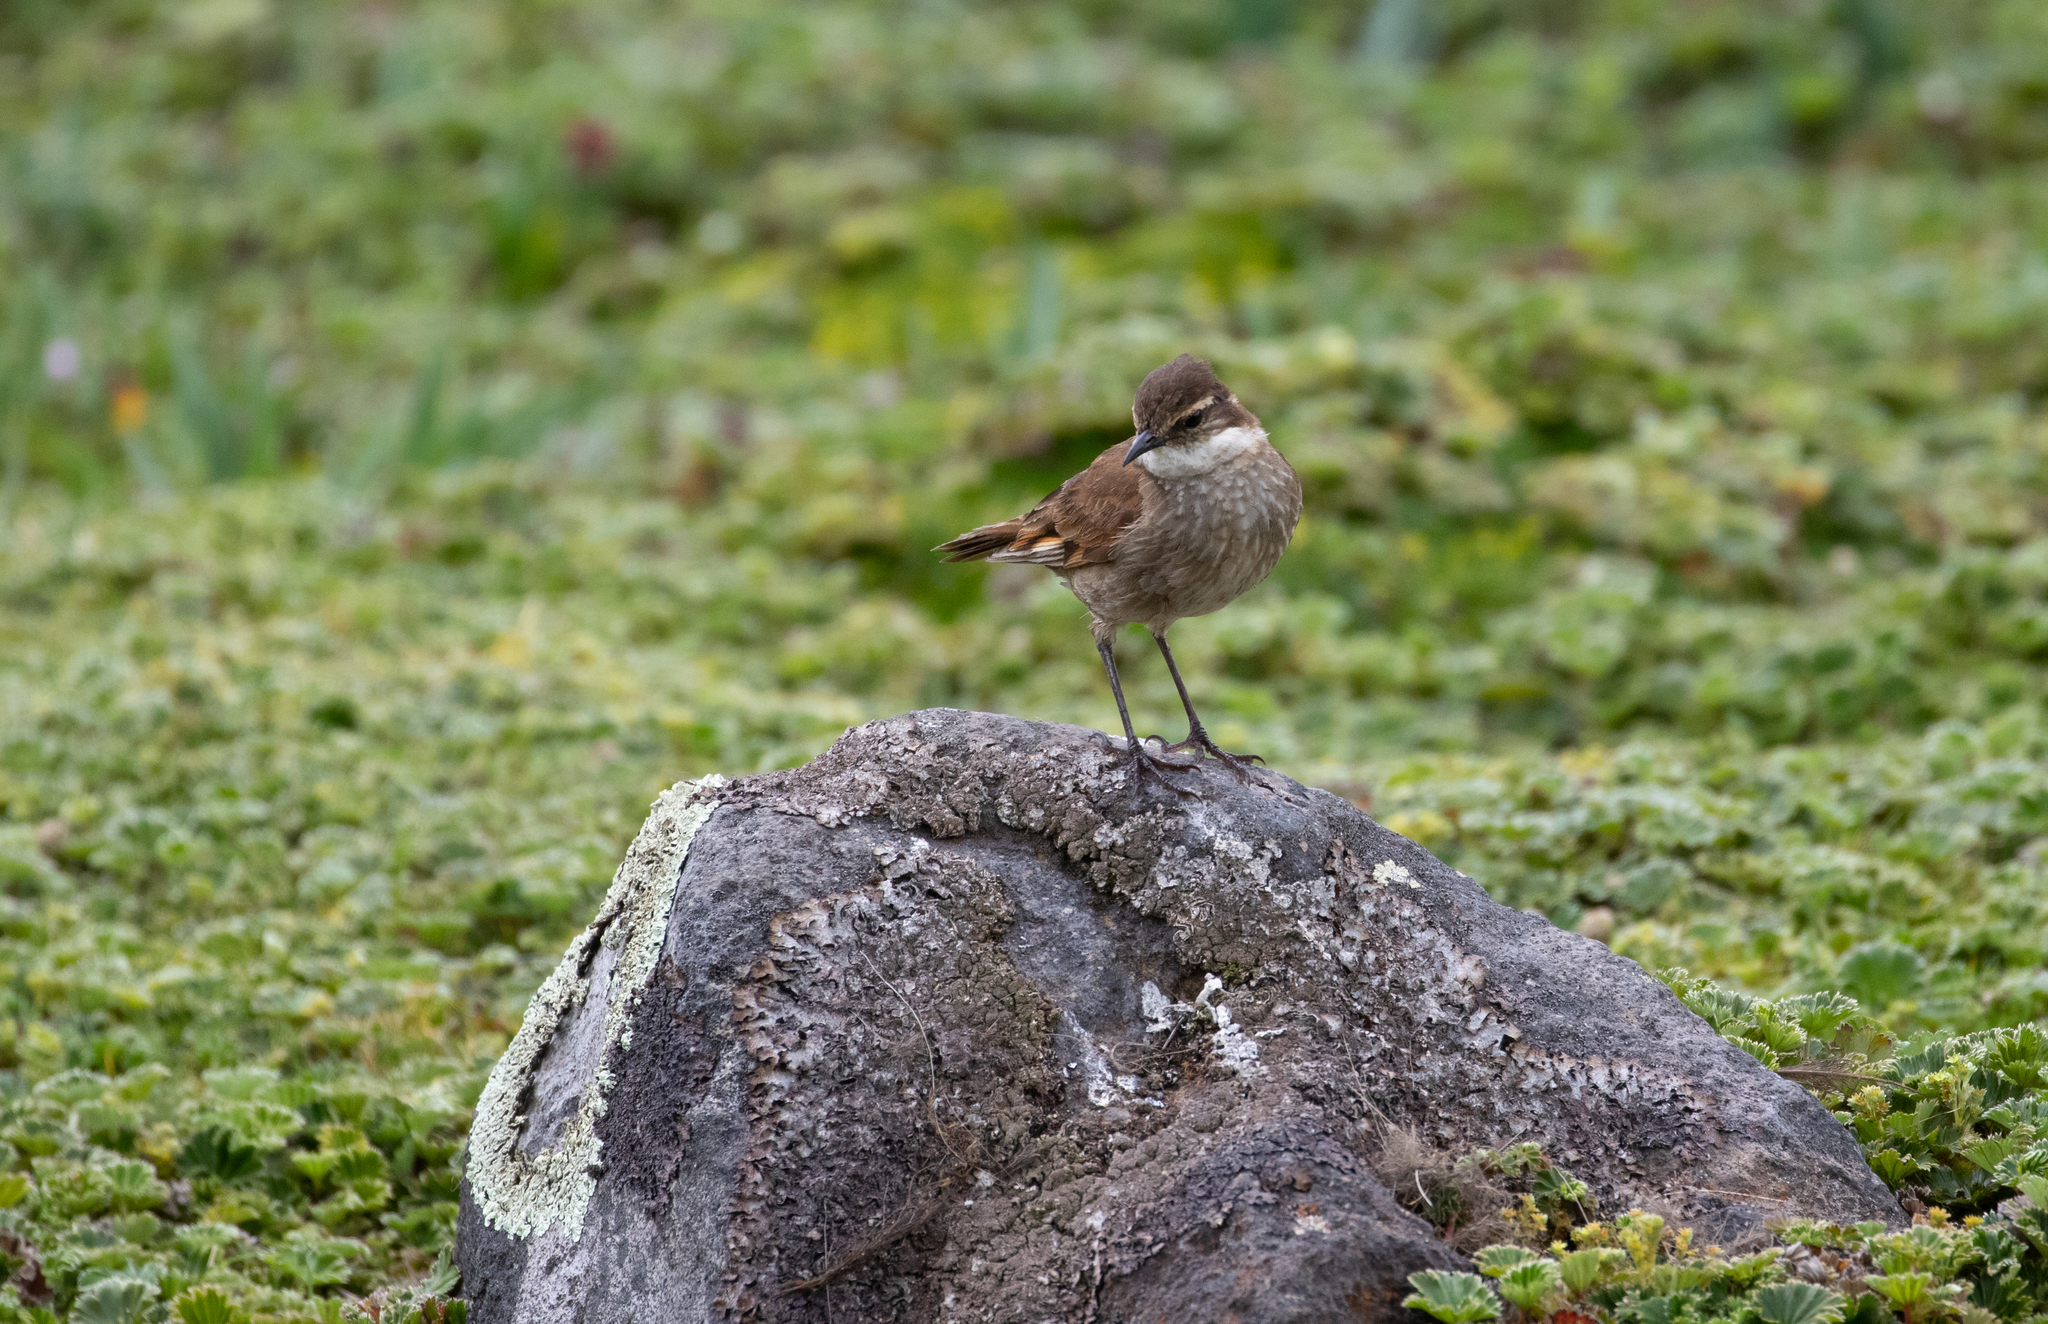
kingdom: Animalia
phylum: Chordata
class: Aves
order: Passeriformes
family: Furnariidae
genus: Cinclodes
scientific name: Cinclodes albidiventris
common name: Chestnut-winged cinclodes
